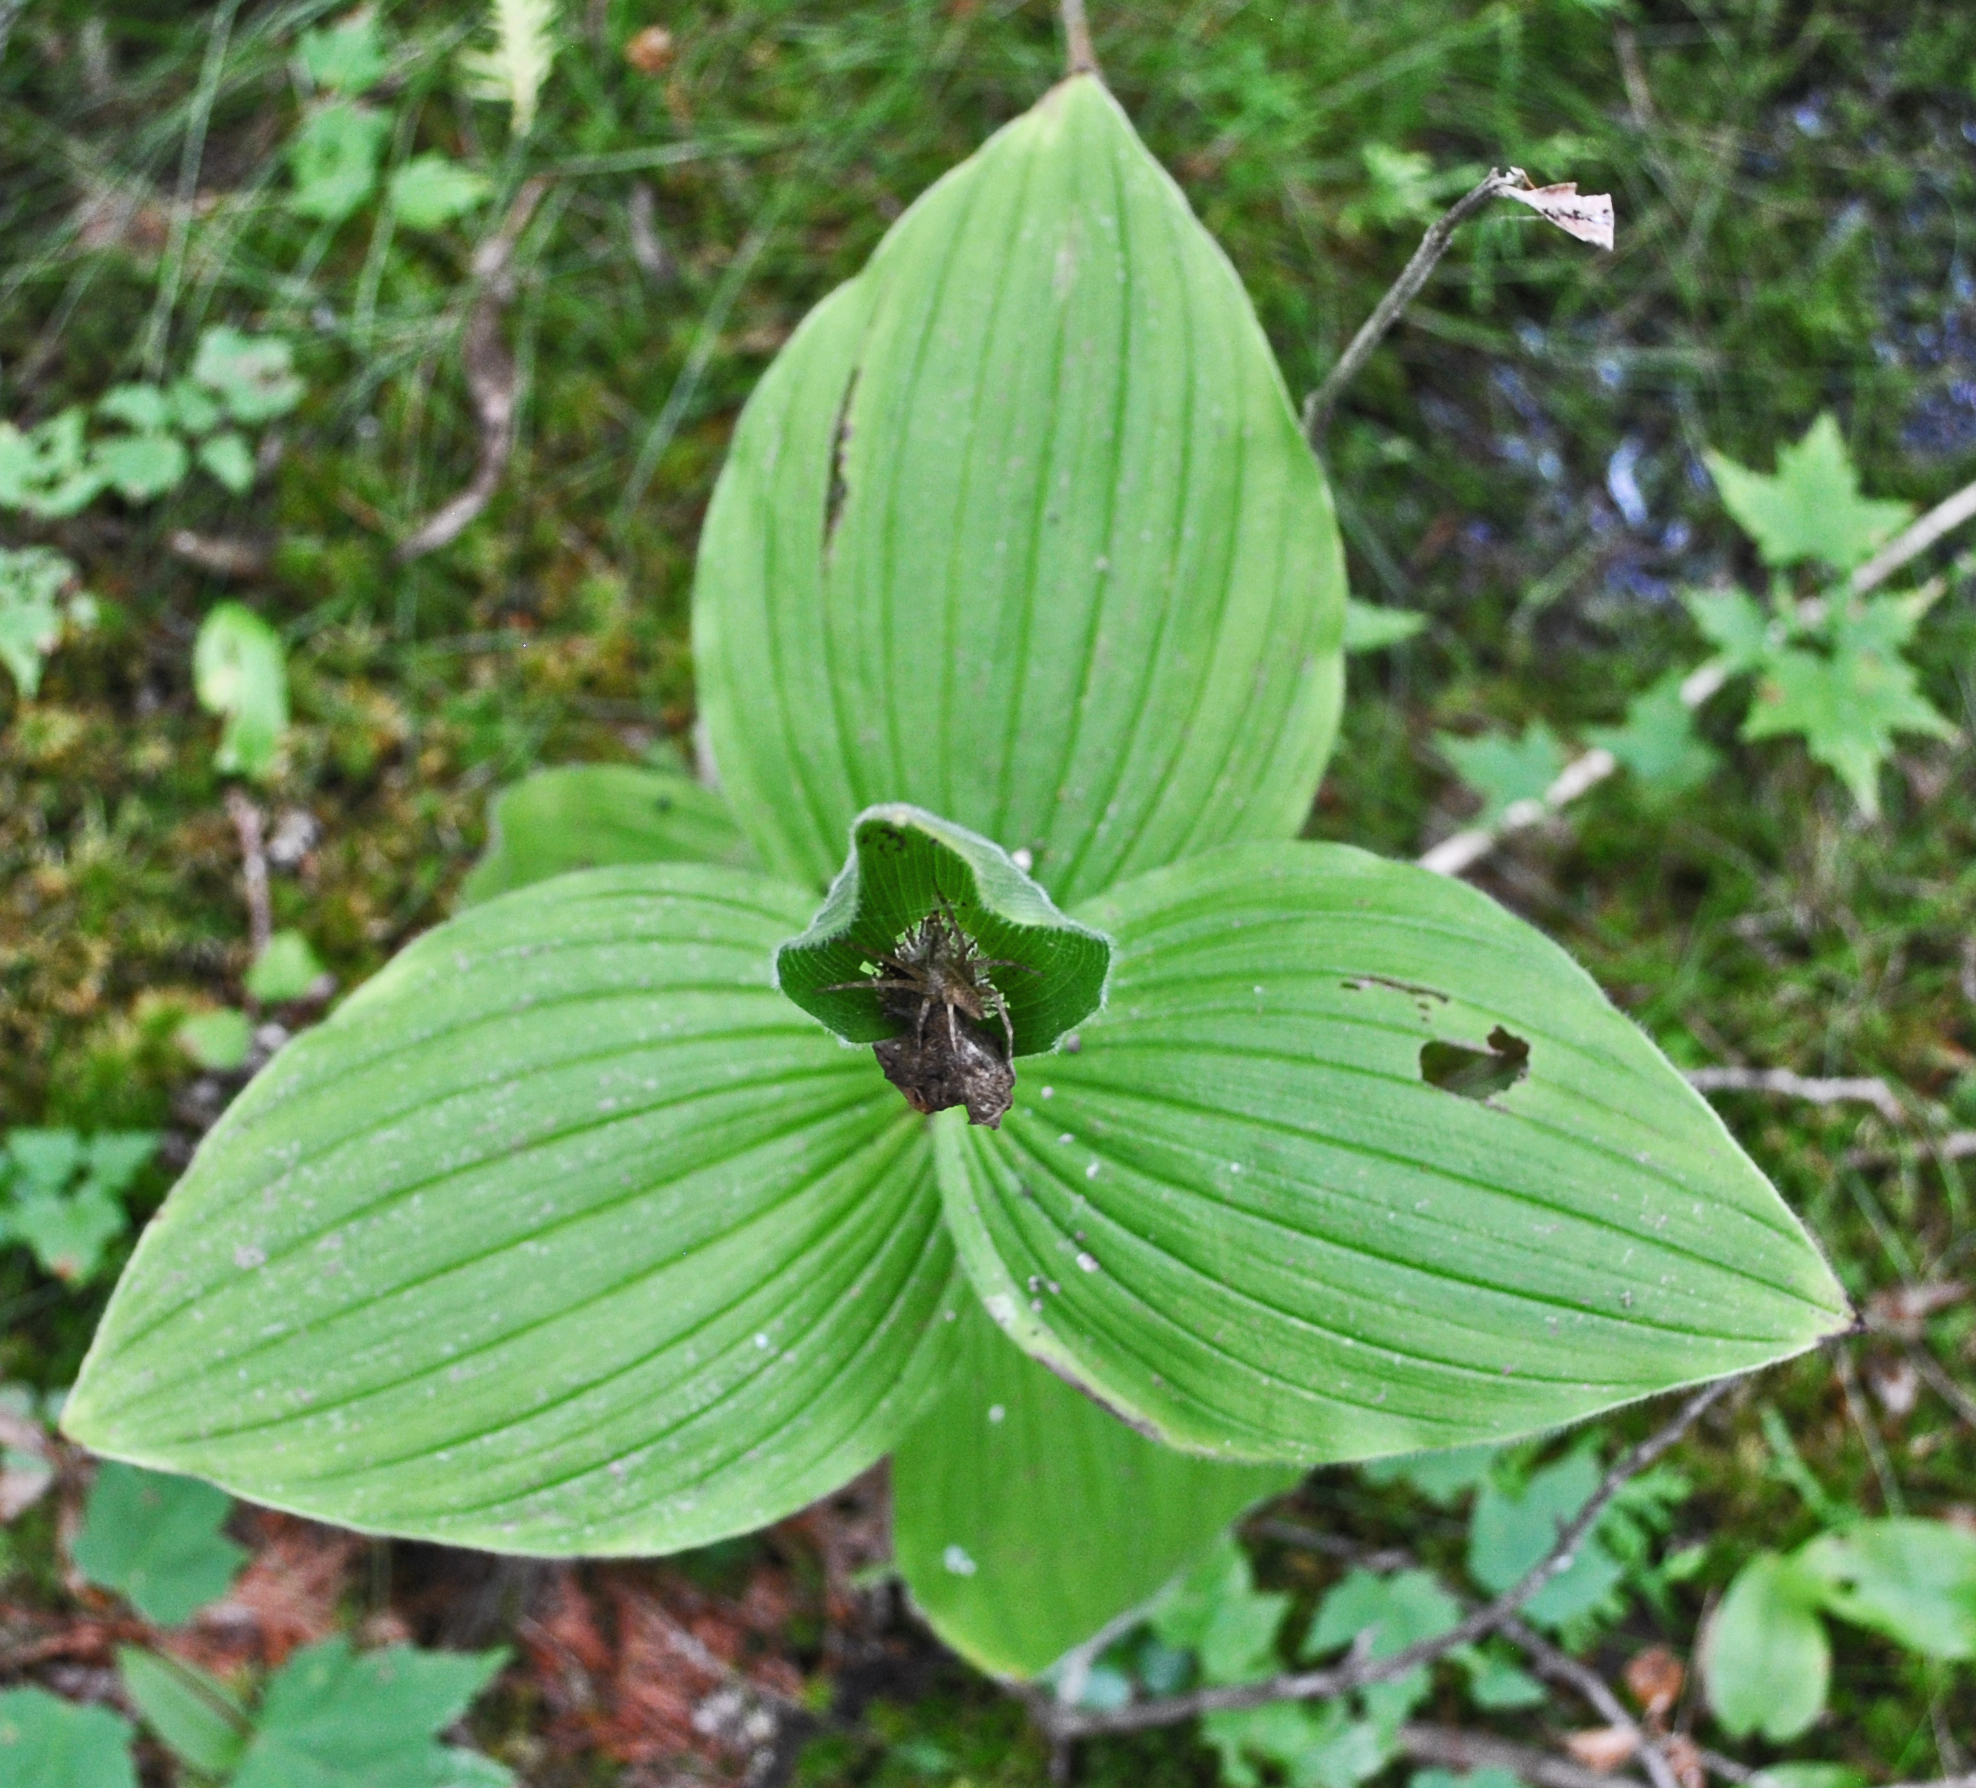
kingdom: Plantae
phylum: Tracheophyta
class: Liliopsida
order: Asparagales
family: Orchidaceae
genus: Cypripedium
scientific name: Cypripedium reginae
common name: Queen lady's-slipper
